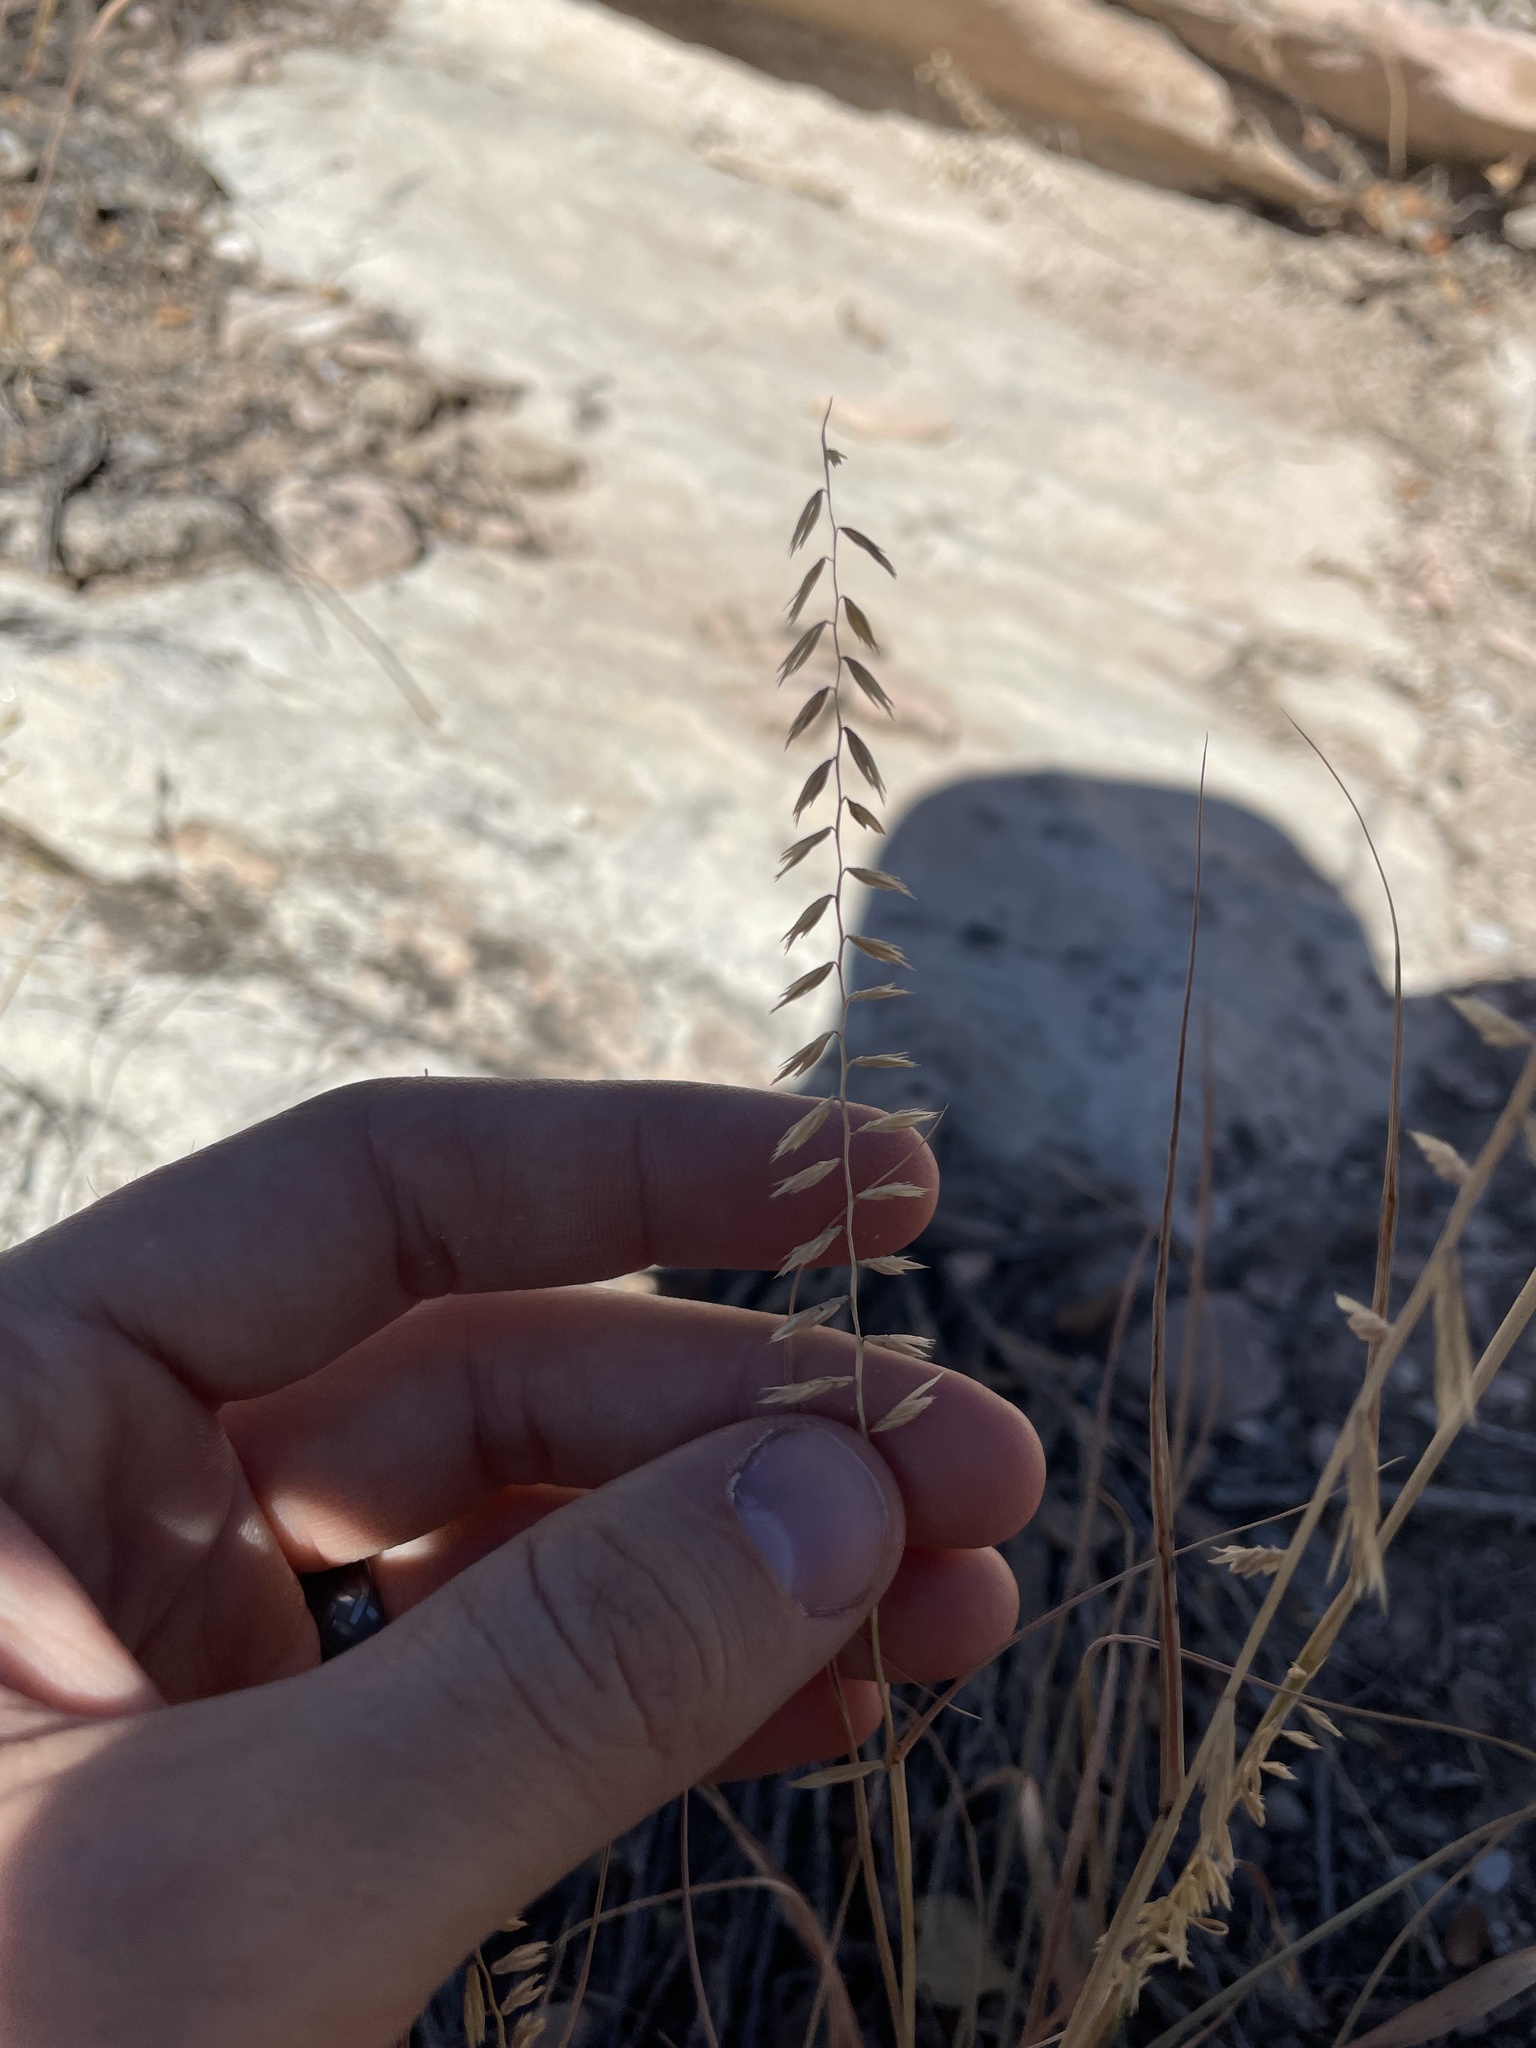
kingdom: Plantae
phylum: Tracheophyta
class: Liliopsida
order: Poales
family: Poaceae
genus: Bouteloua
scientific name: Bouteloua curtipendula
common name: Side-oats grama
